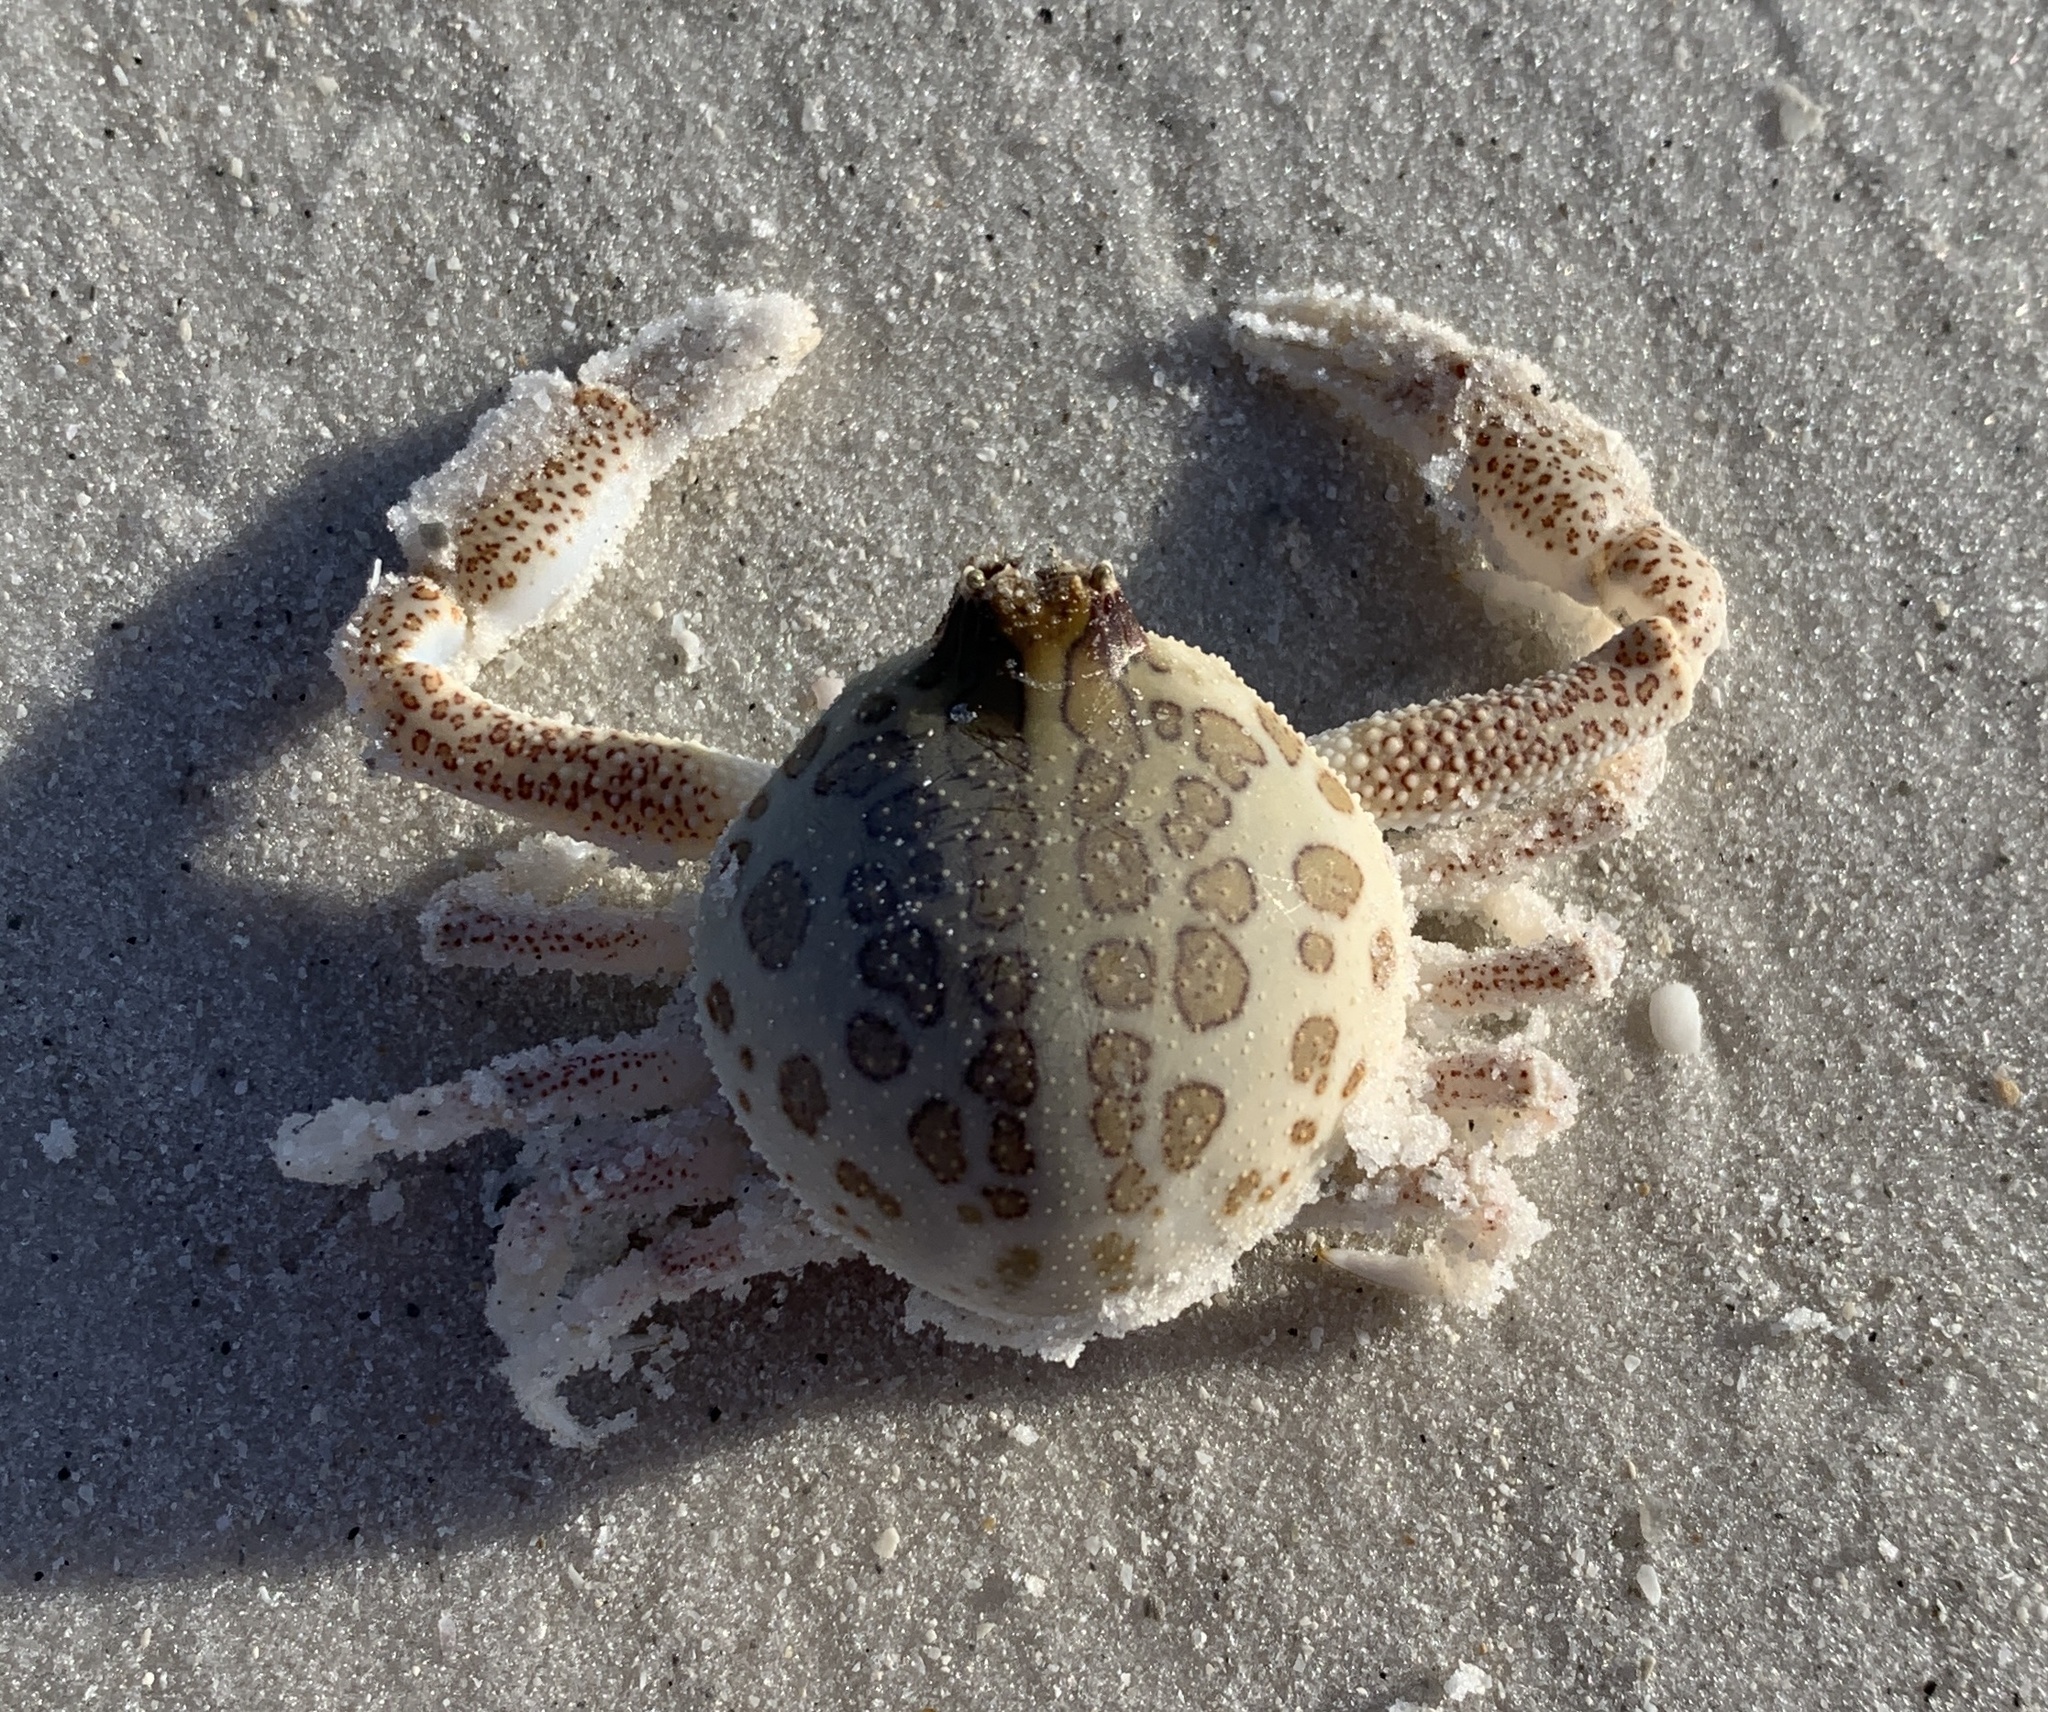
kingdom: Animalia
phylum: Arthropoda
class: Malacostraca
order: Decapoda
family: Leucosiidae
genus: Persephona
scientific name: Persephona mediterranea
